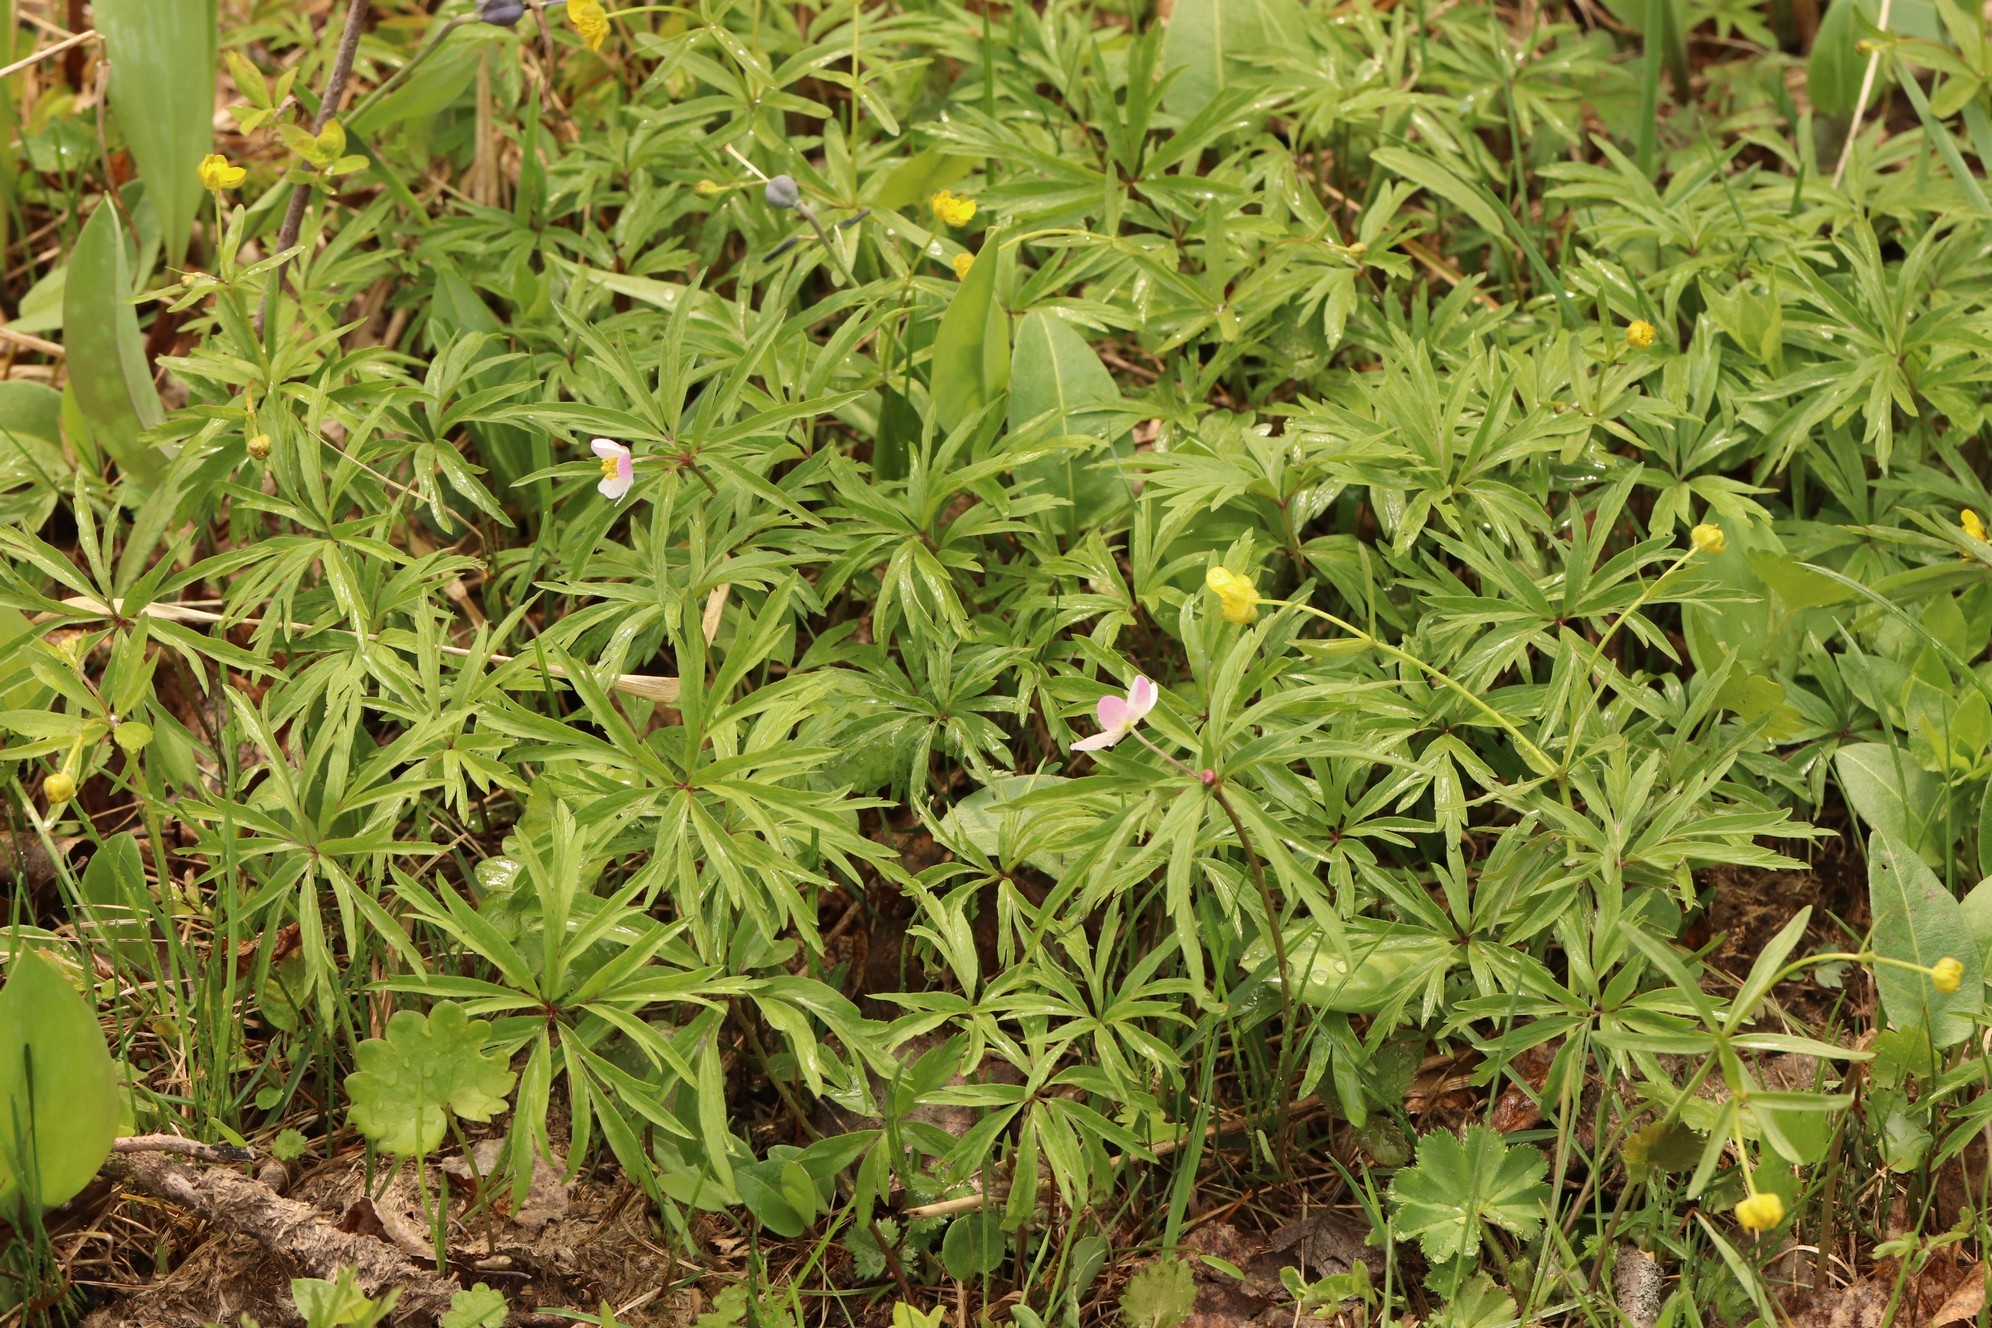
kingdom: Plantae
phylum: Tracheophyta
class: Magnoliopsida
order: Ranunculales
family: Ranunculaceae
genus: Anemone
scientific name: Anemone caerulea
